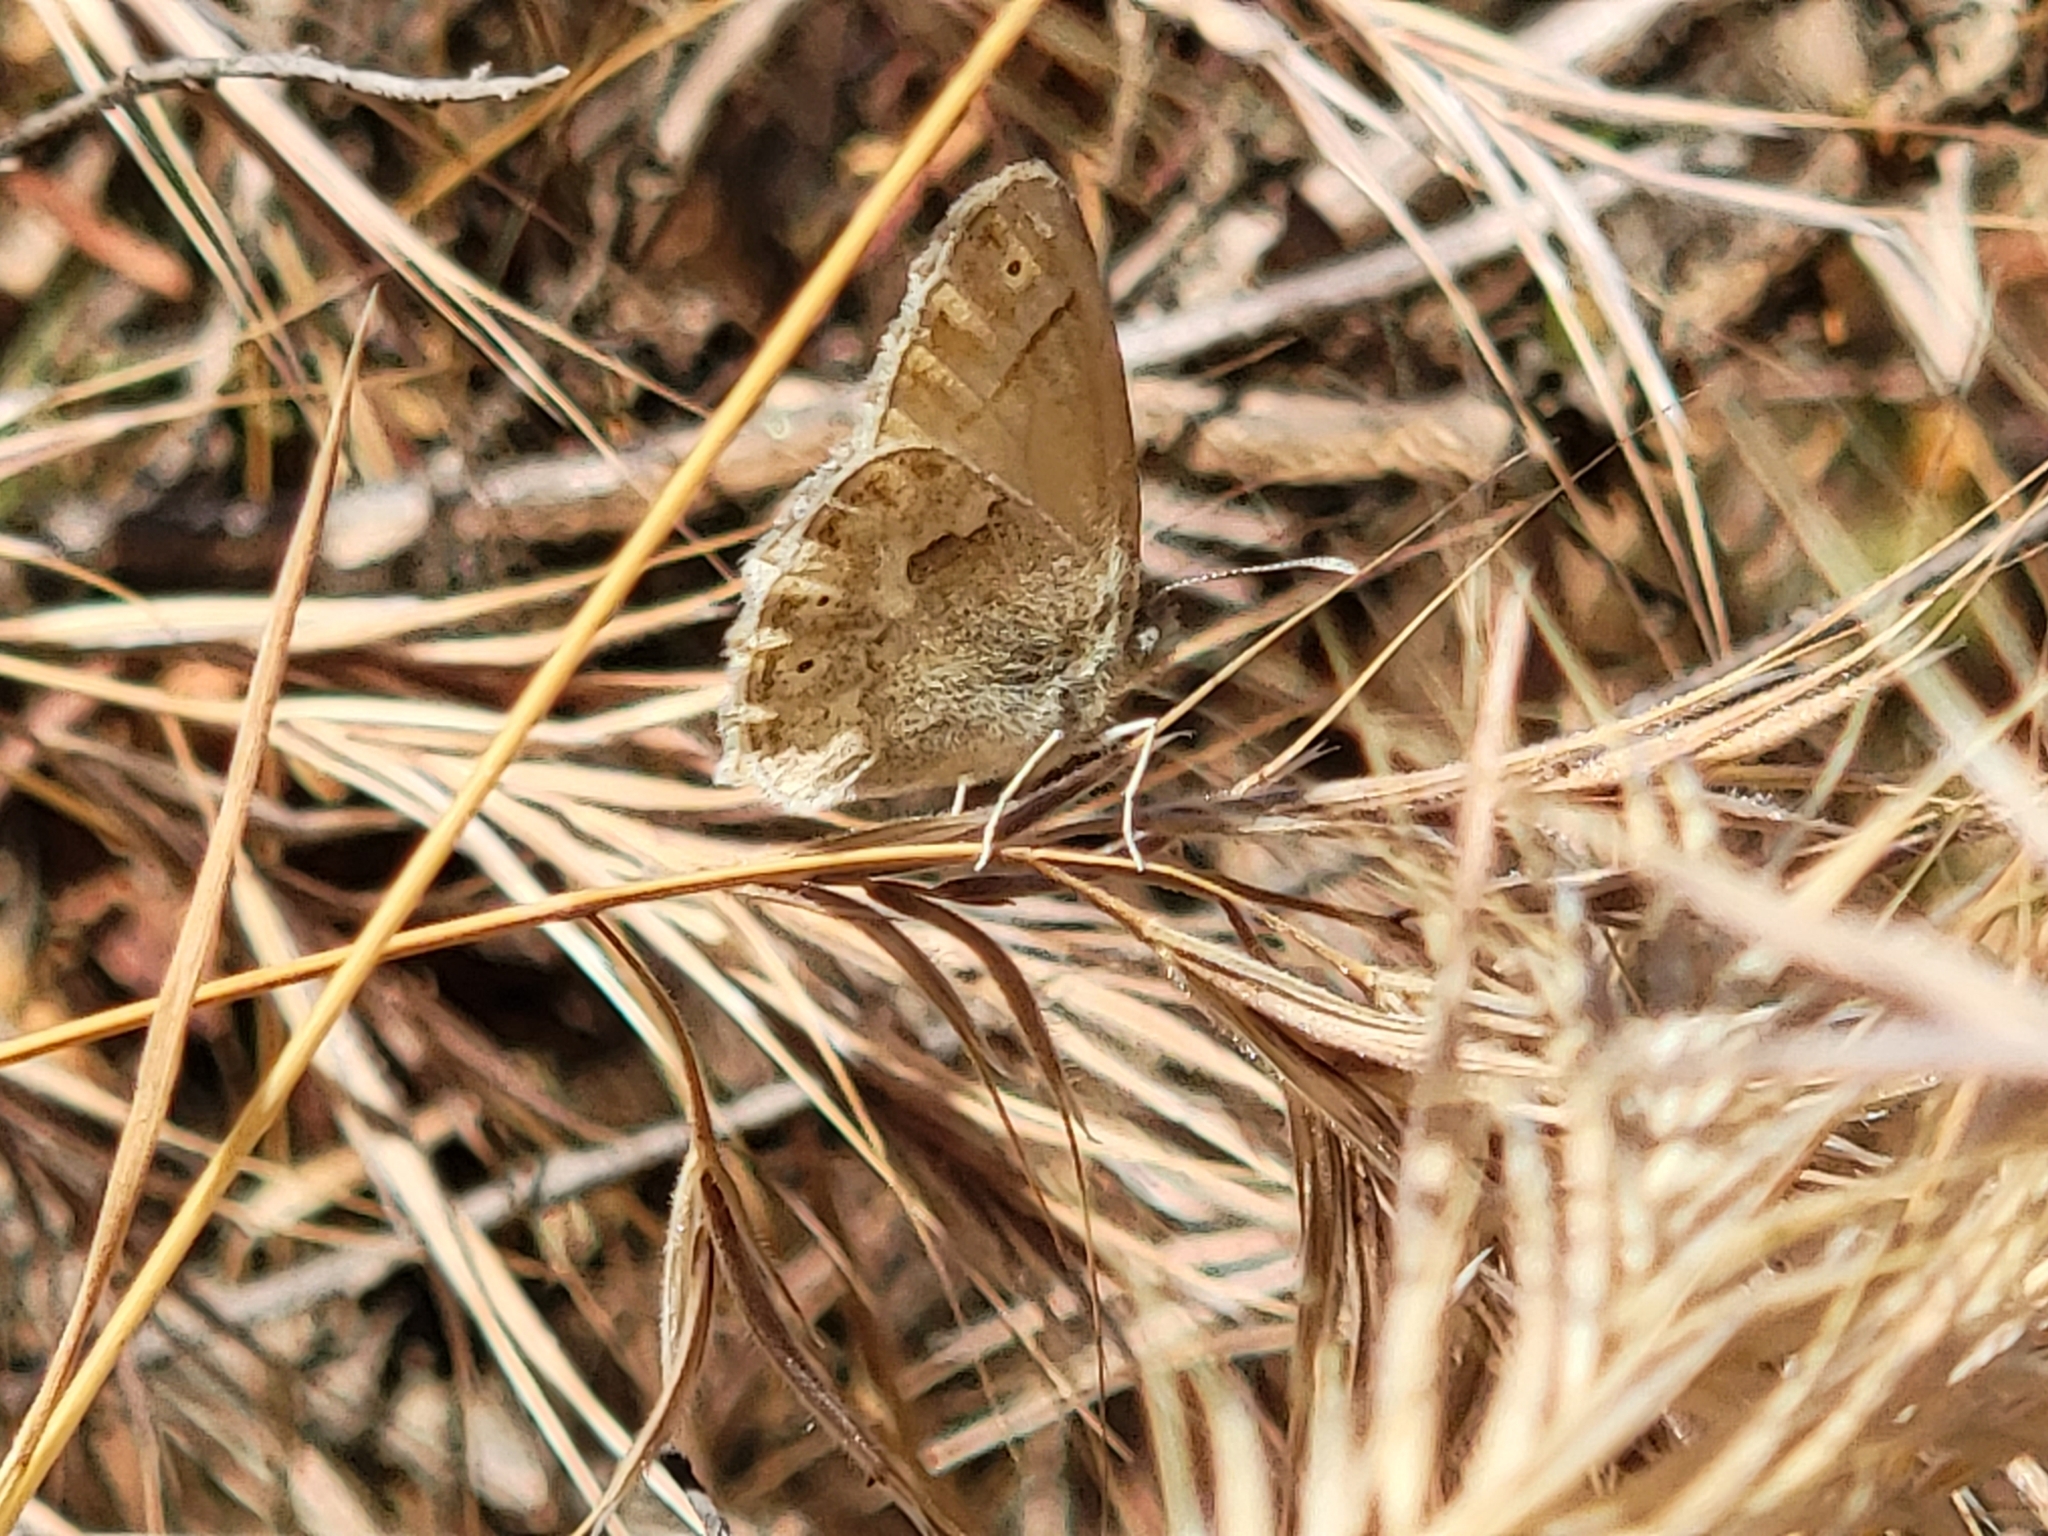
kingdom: Animalia
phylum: Arthropoda
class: Insecta
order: Lepidoptera
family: Nymphalidae
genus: Coenonympha
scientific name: Coenonympha california
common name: Common ringlet
